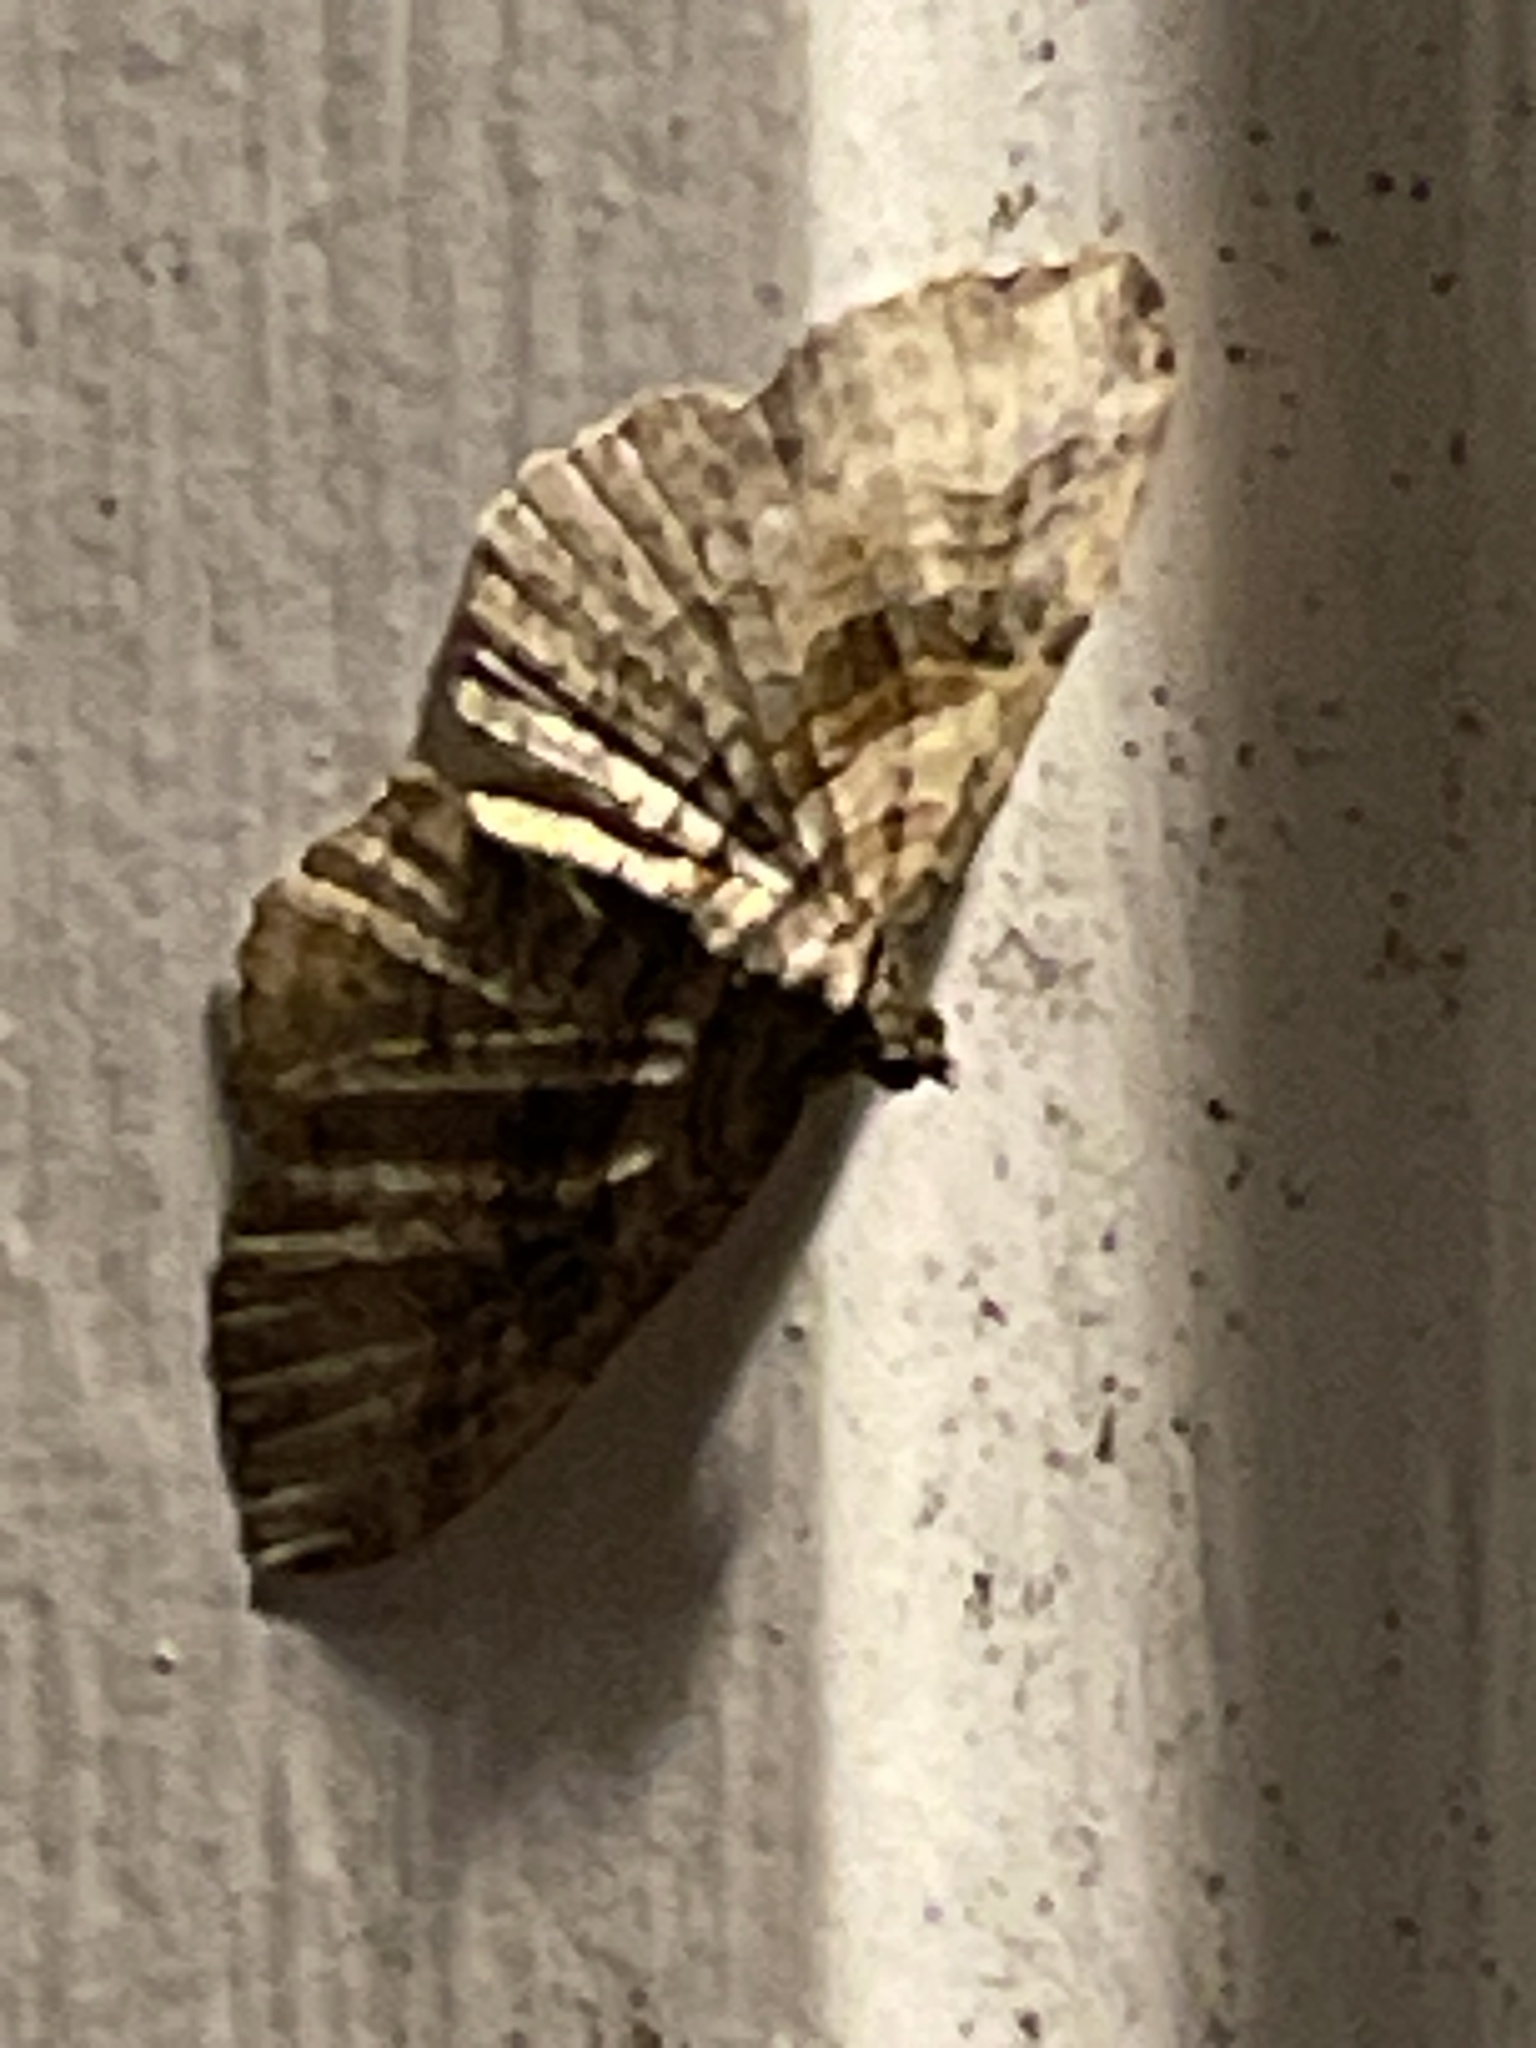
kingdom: Animalia
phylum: Arthropoda
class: Insecta
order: Lepidoptera
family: Geometridae
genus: Costaconvexa
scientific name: Costaconvexa centrostrigaria
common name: Bent-line carpet
